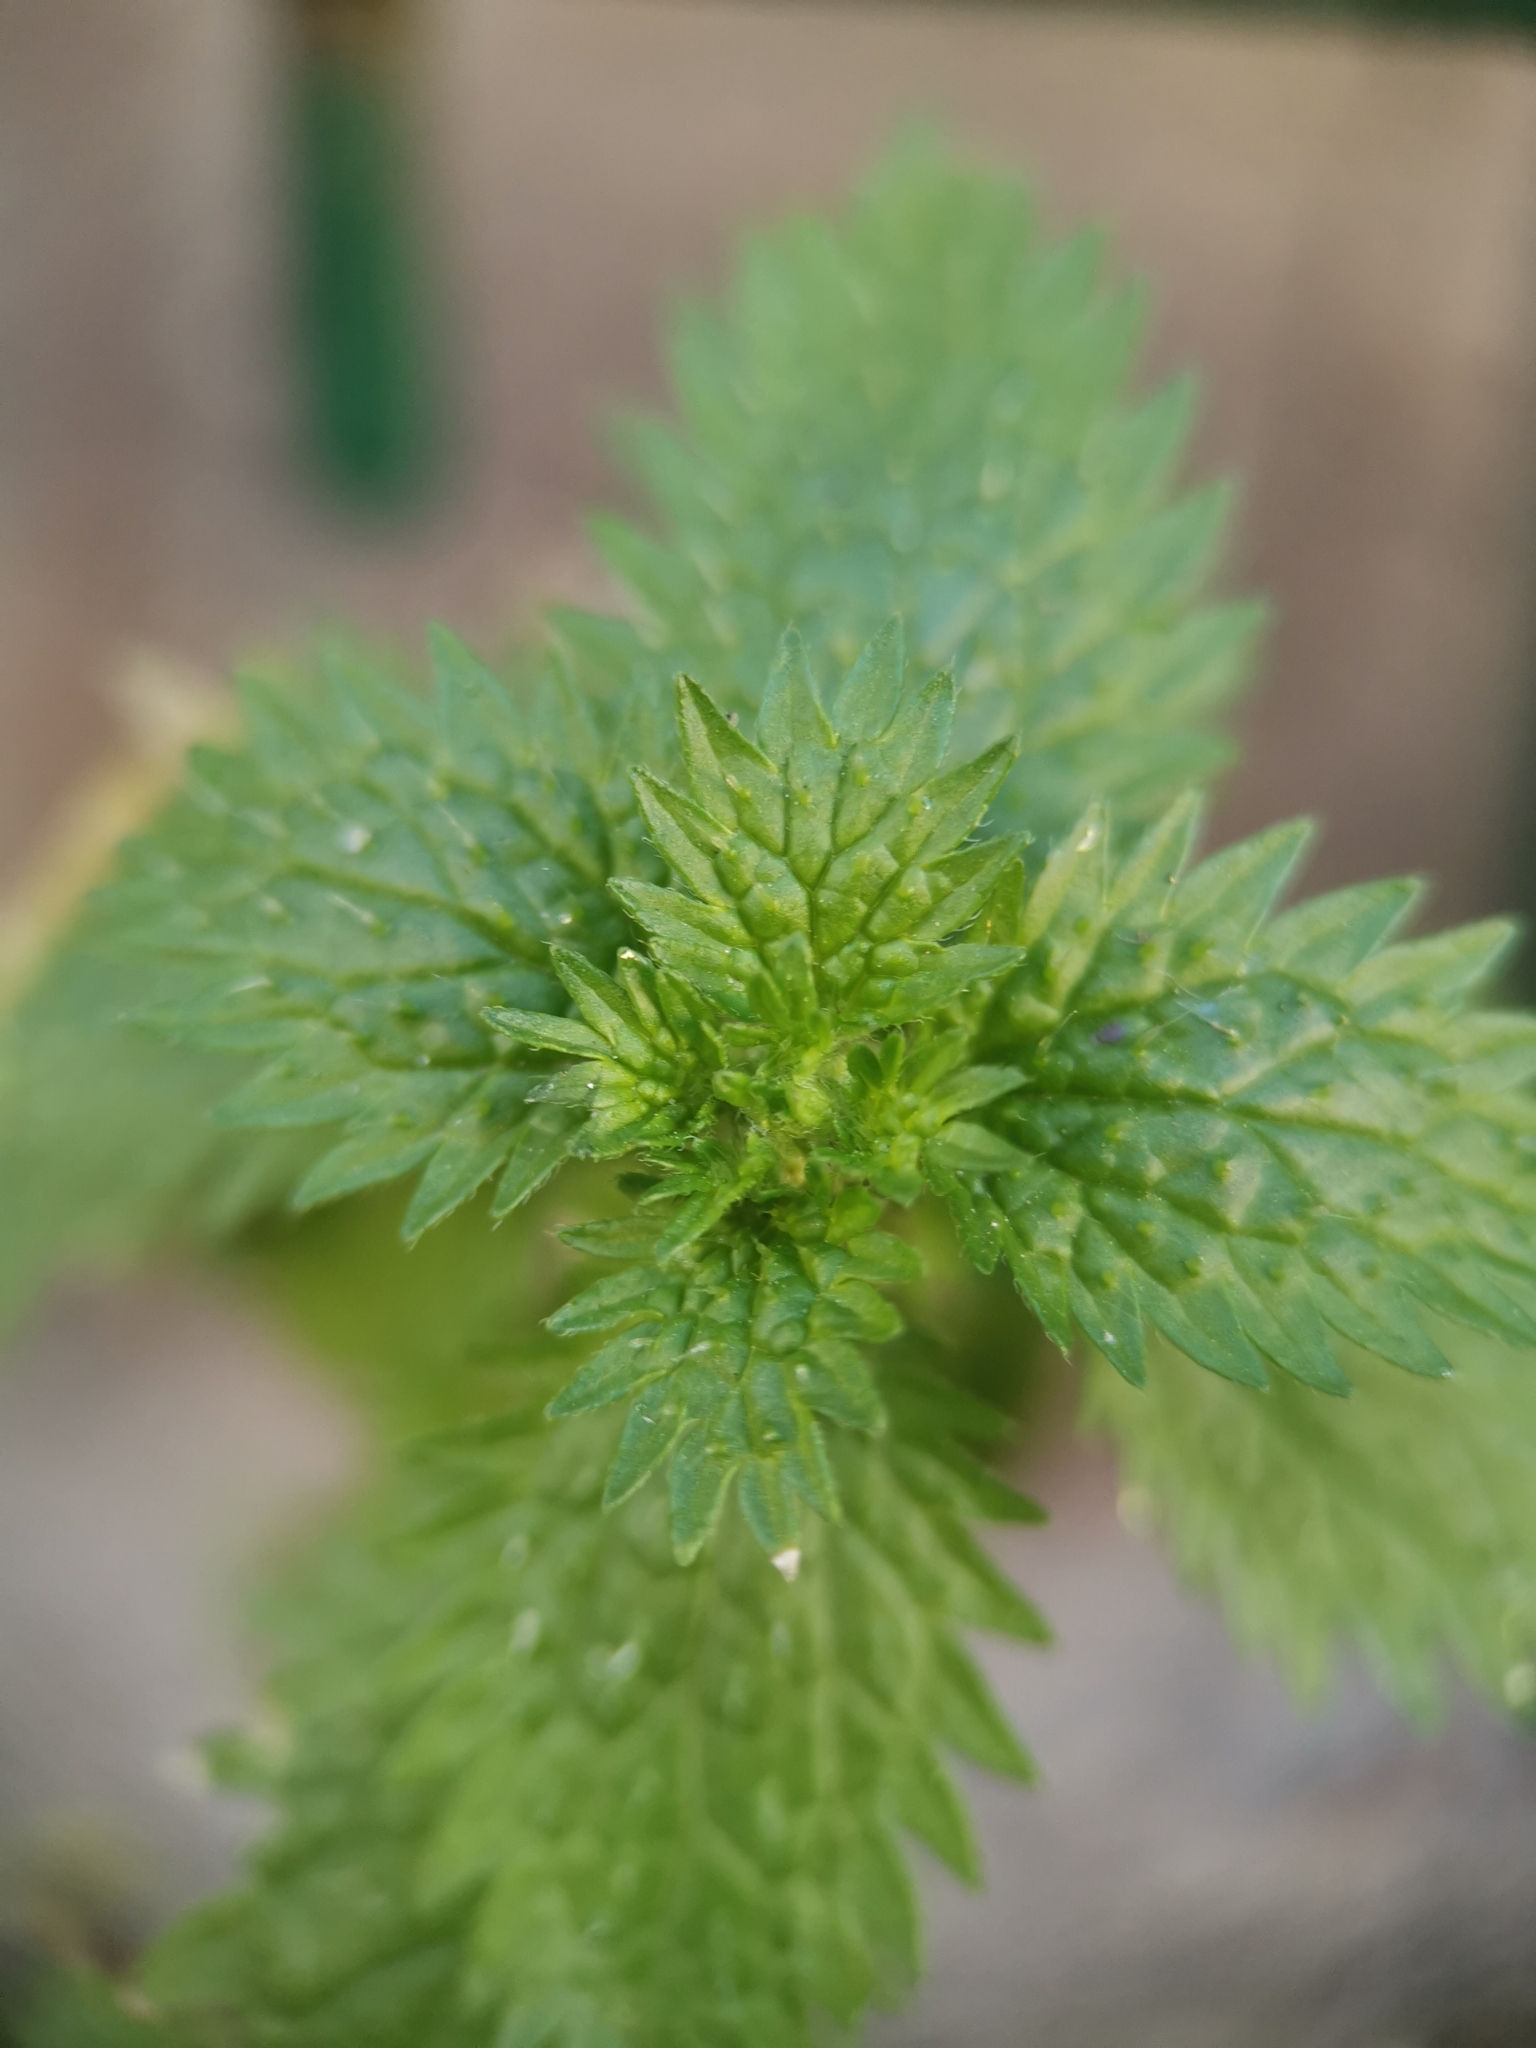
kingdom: Plantae
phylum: Tracheophyta
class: Magnoliopsida
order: Rosales
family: Urticaceae
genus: Urtica
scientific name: Urtica urens
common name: Dwarf nettle
